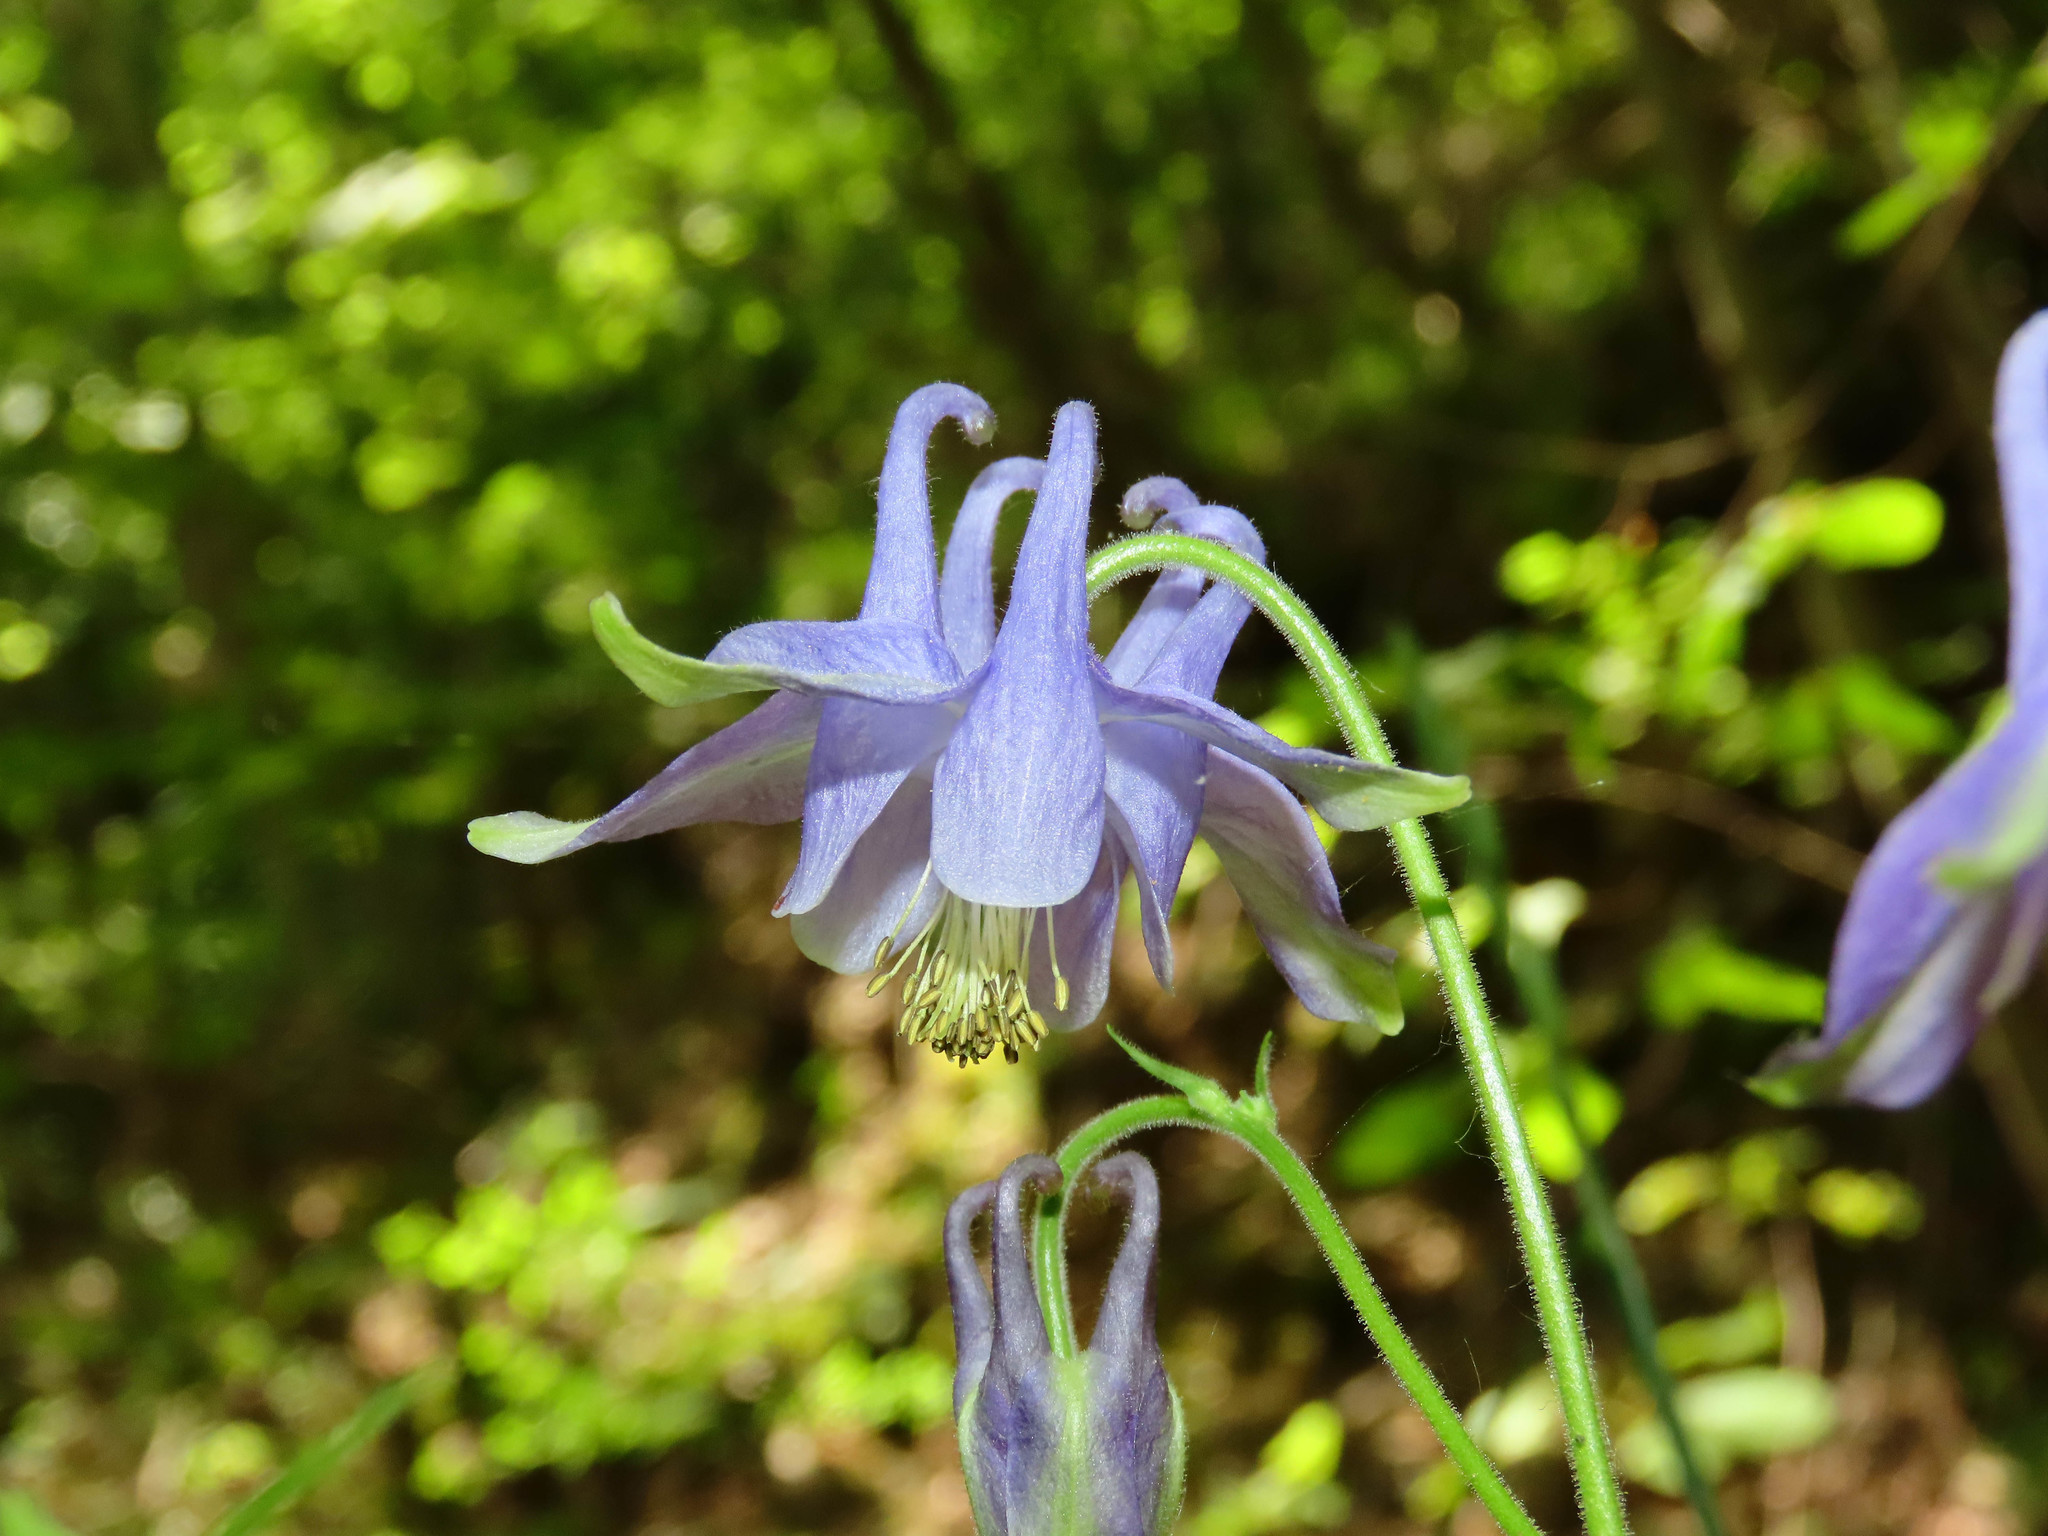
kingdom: Plantae
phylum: Tracheophyta
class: Magnoliopsida
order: Ranunculales
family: Ranunculaceae
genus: Aquilegia
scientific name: Aquilegia dumeticola
